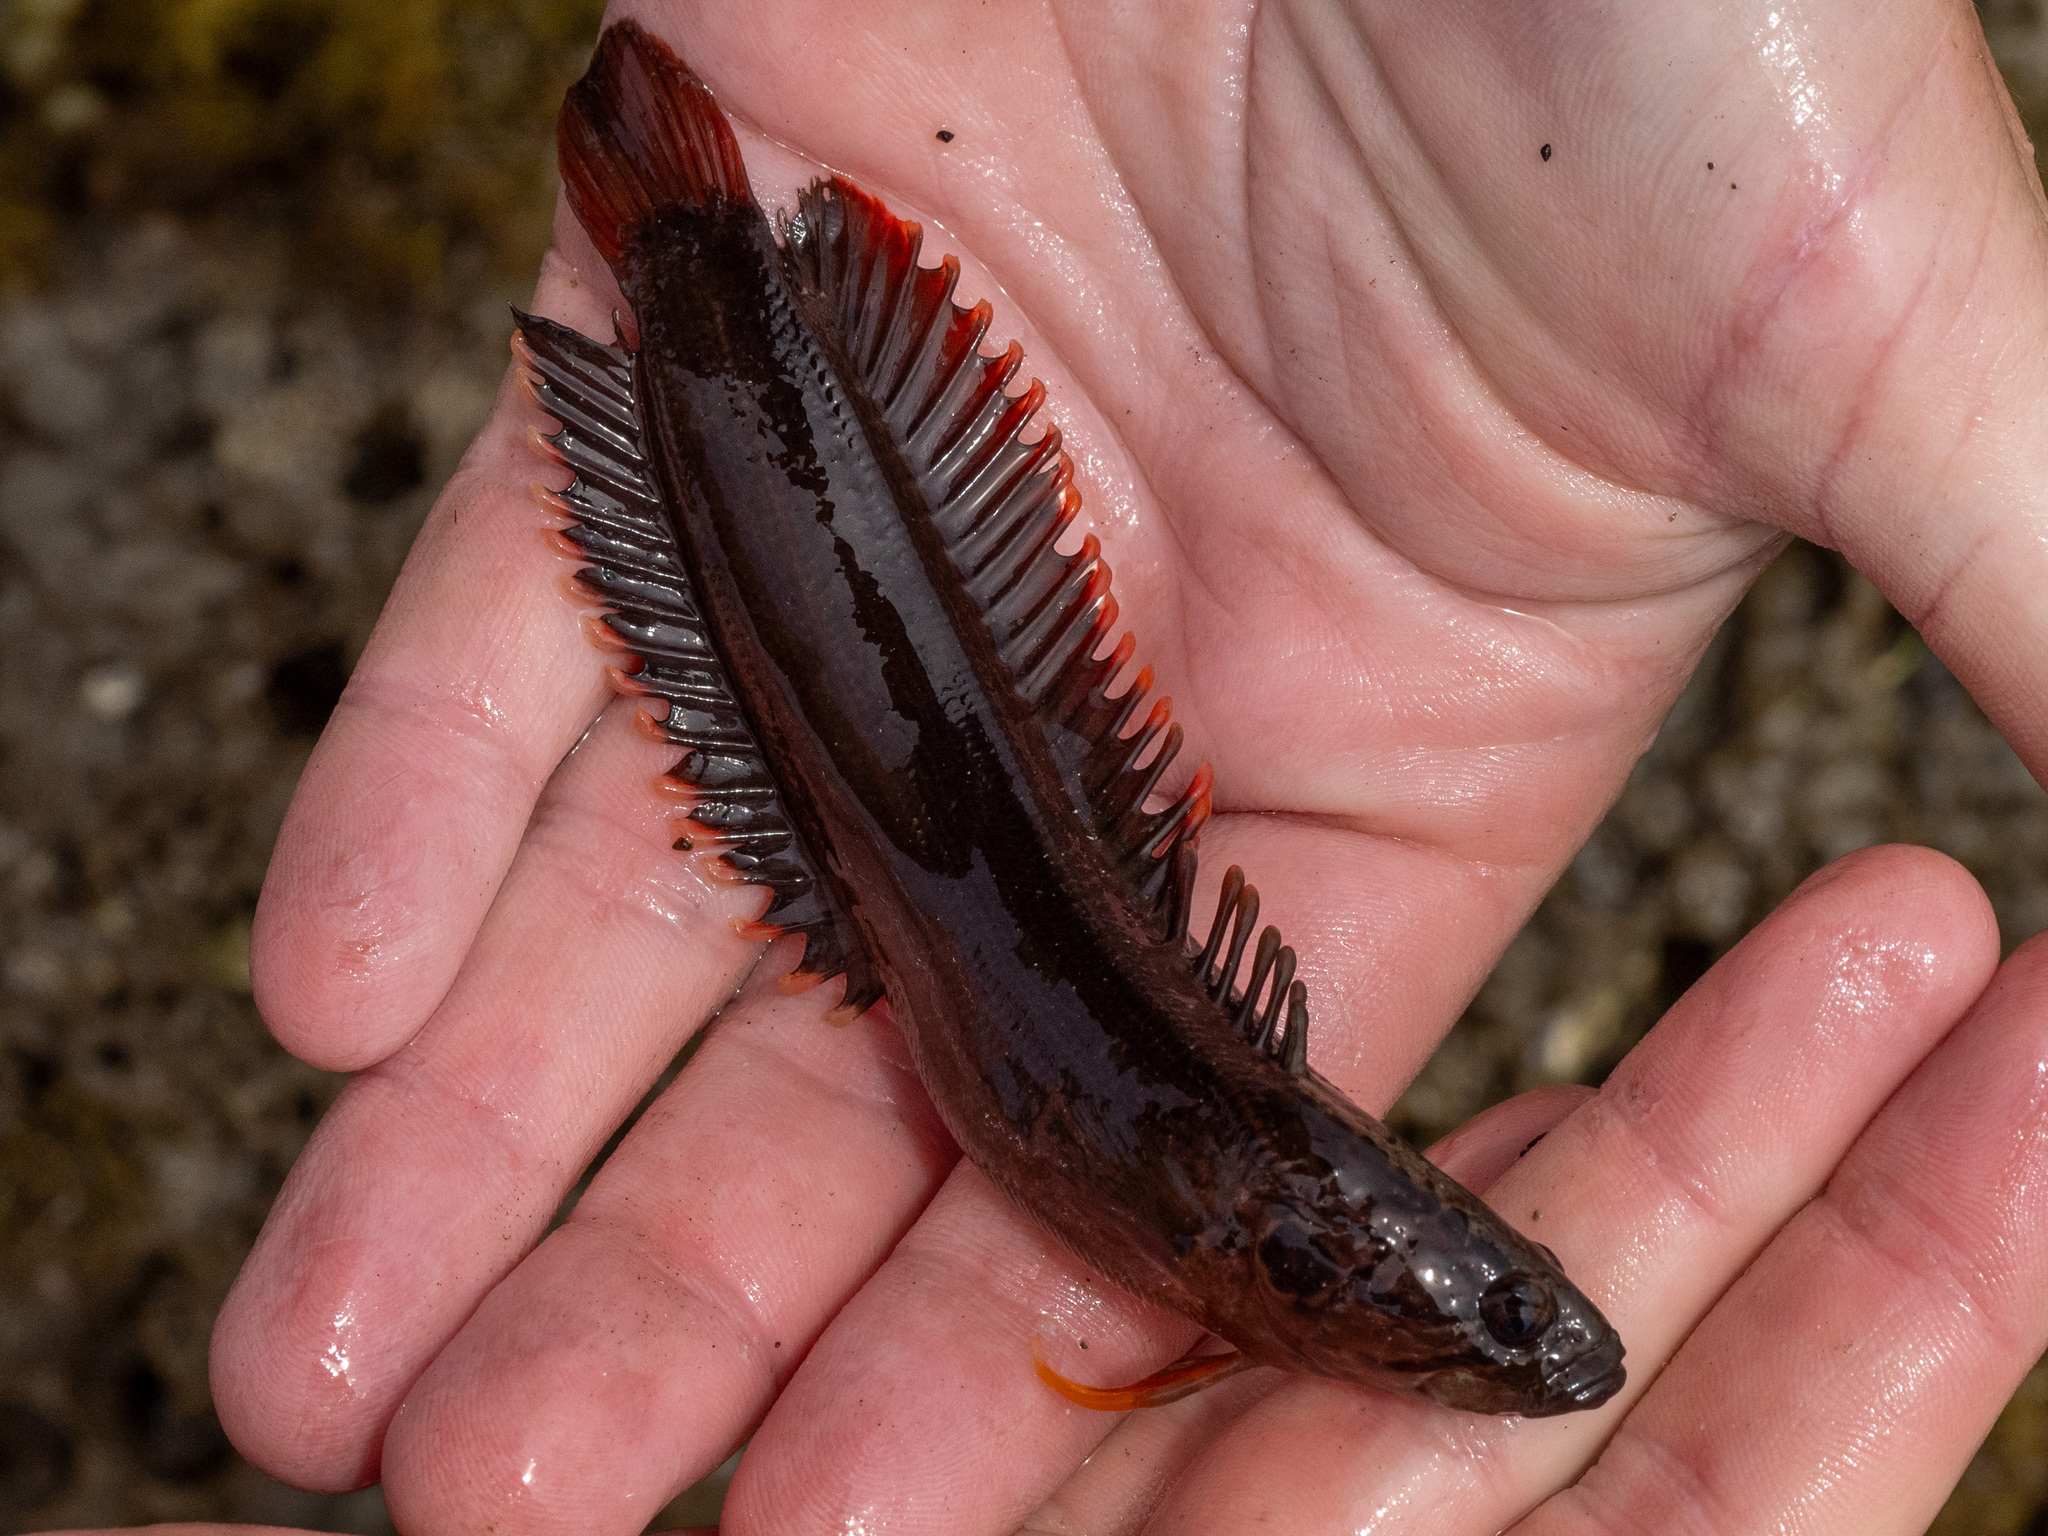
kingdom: Animalia
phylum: Chordata
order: Perciformes
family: Plesiopidae
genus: Acanthoclinus
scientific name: Acanthoclinus littoreus
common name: Rockfish
